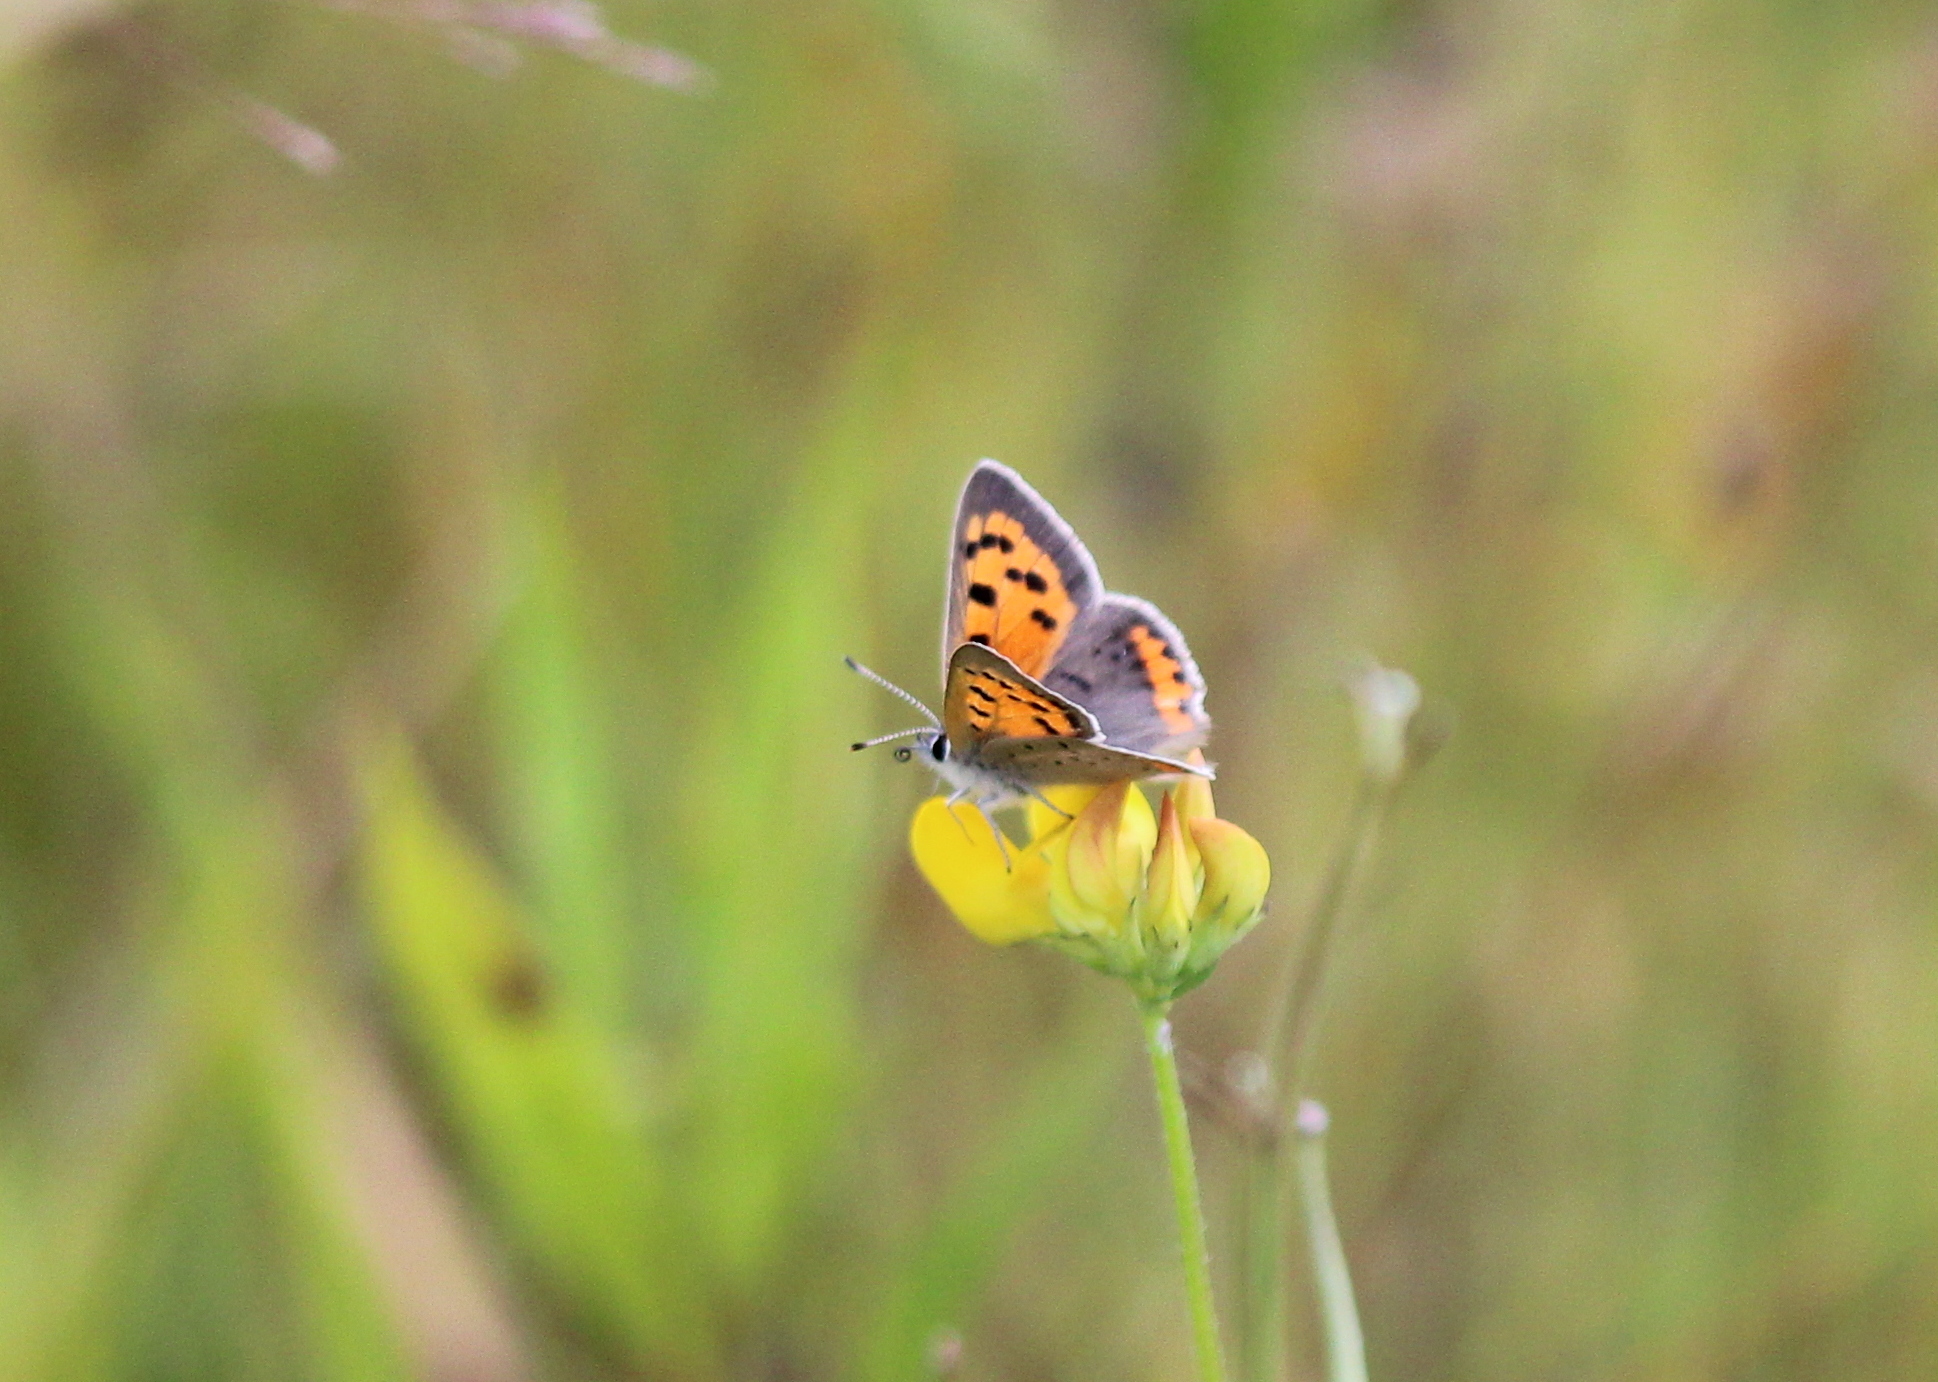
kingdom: Animalia
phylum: Arthropoda
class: Insecta
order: Lepidoptera
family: Lycaenidae
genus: Lycaena
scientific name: Lycaena hypophlaeas
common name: American copper
